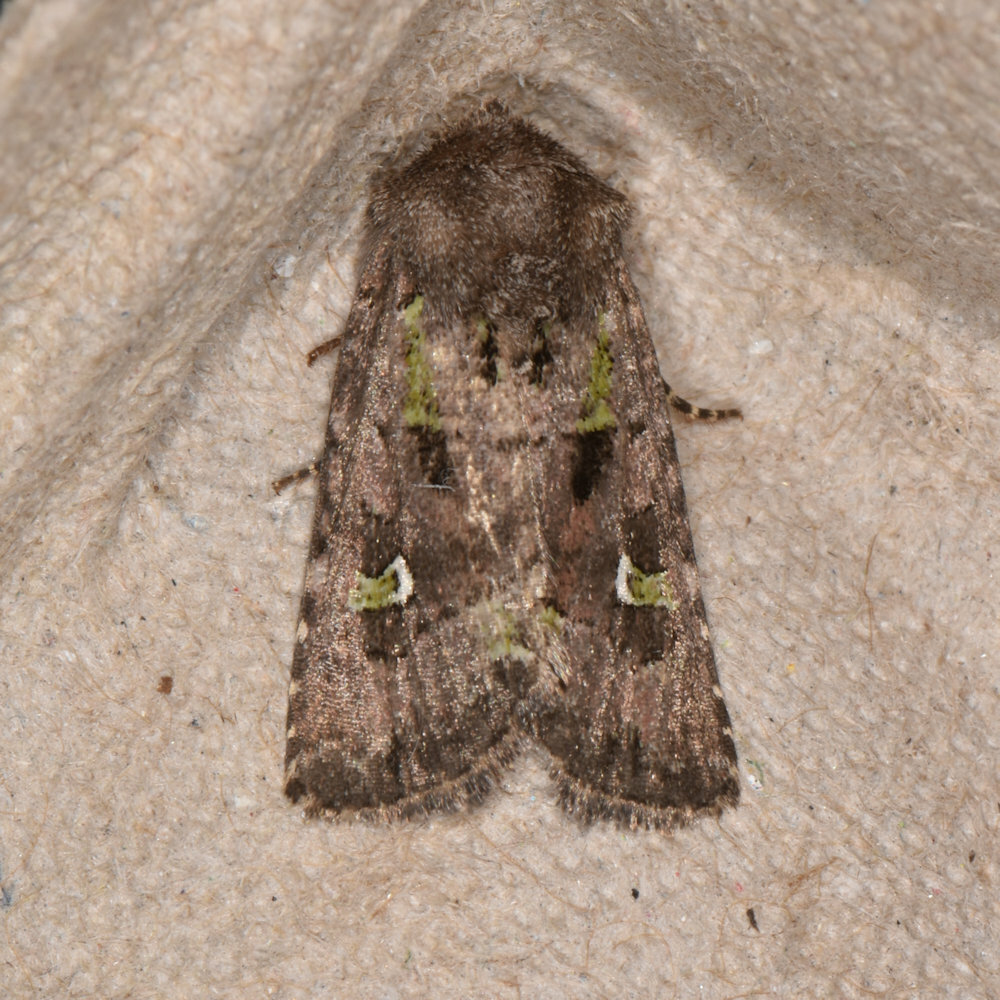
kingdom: Animalia
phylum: Arthropoda
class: Insecta
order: Lepidoptera
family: Noctuidae
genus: Lacinipolia
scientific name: Lacinipolia renigera
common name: Kidney-spotted minor
